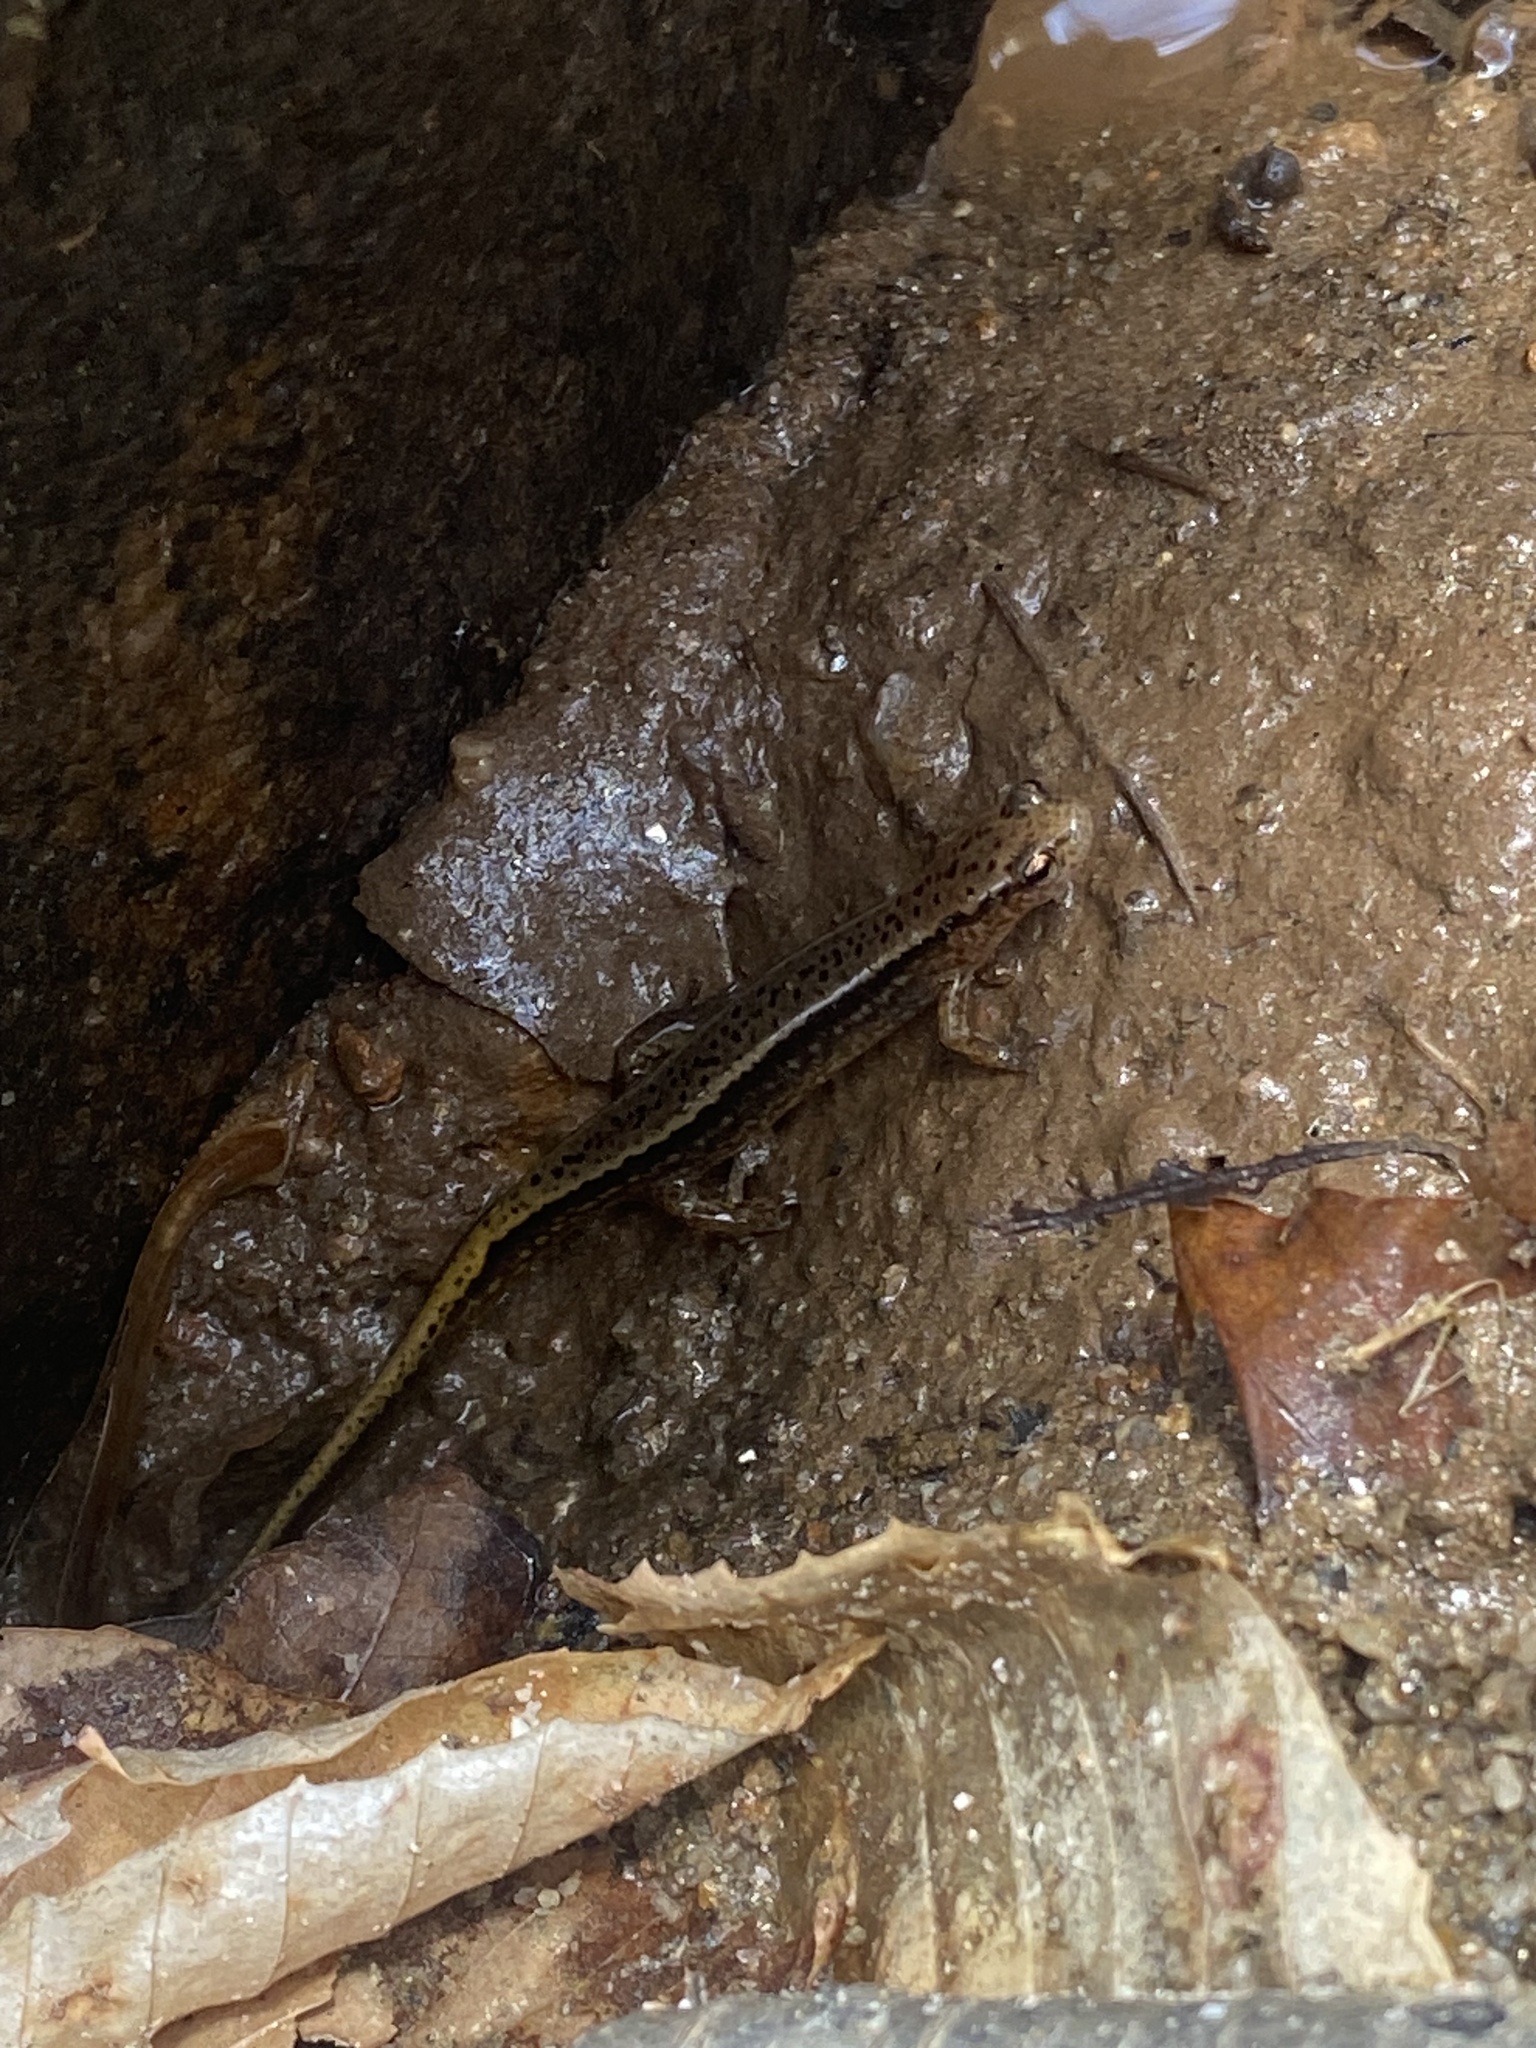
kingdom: Animalia
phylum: Chordata
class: Amphibia
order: Caudata
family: Plethodontidae
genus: Eurycea
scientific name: Eurycea cirrigera
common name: Southern two-lined salamander
